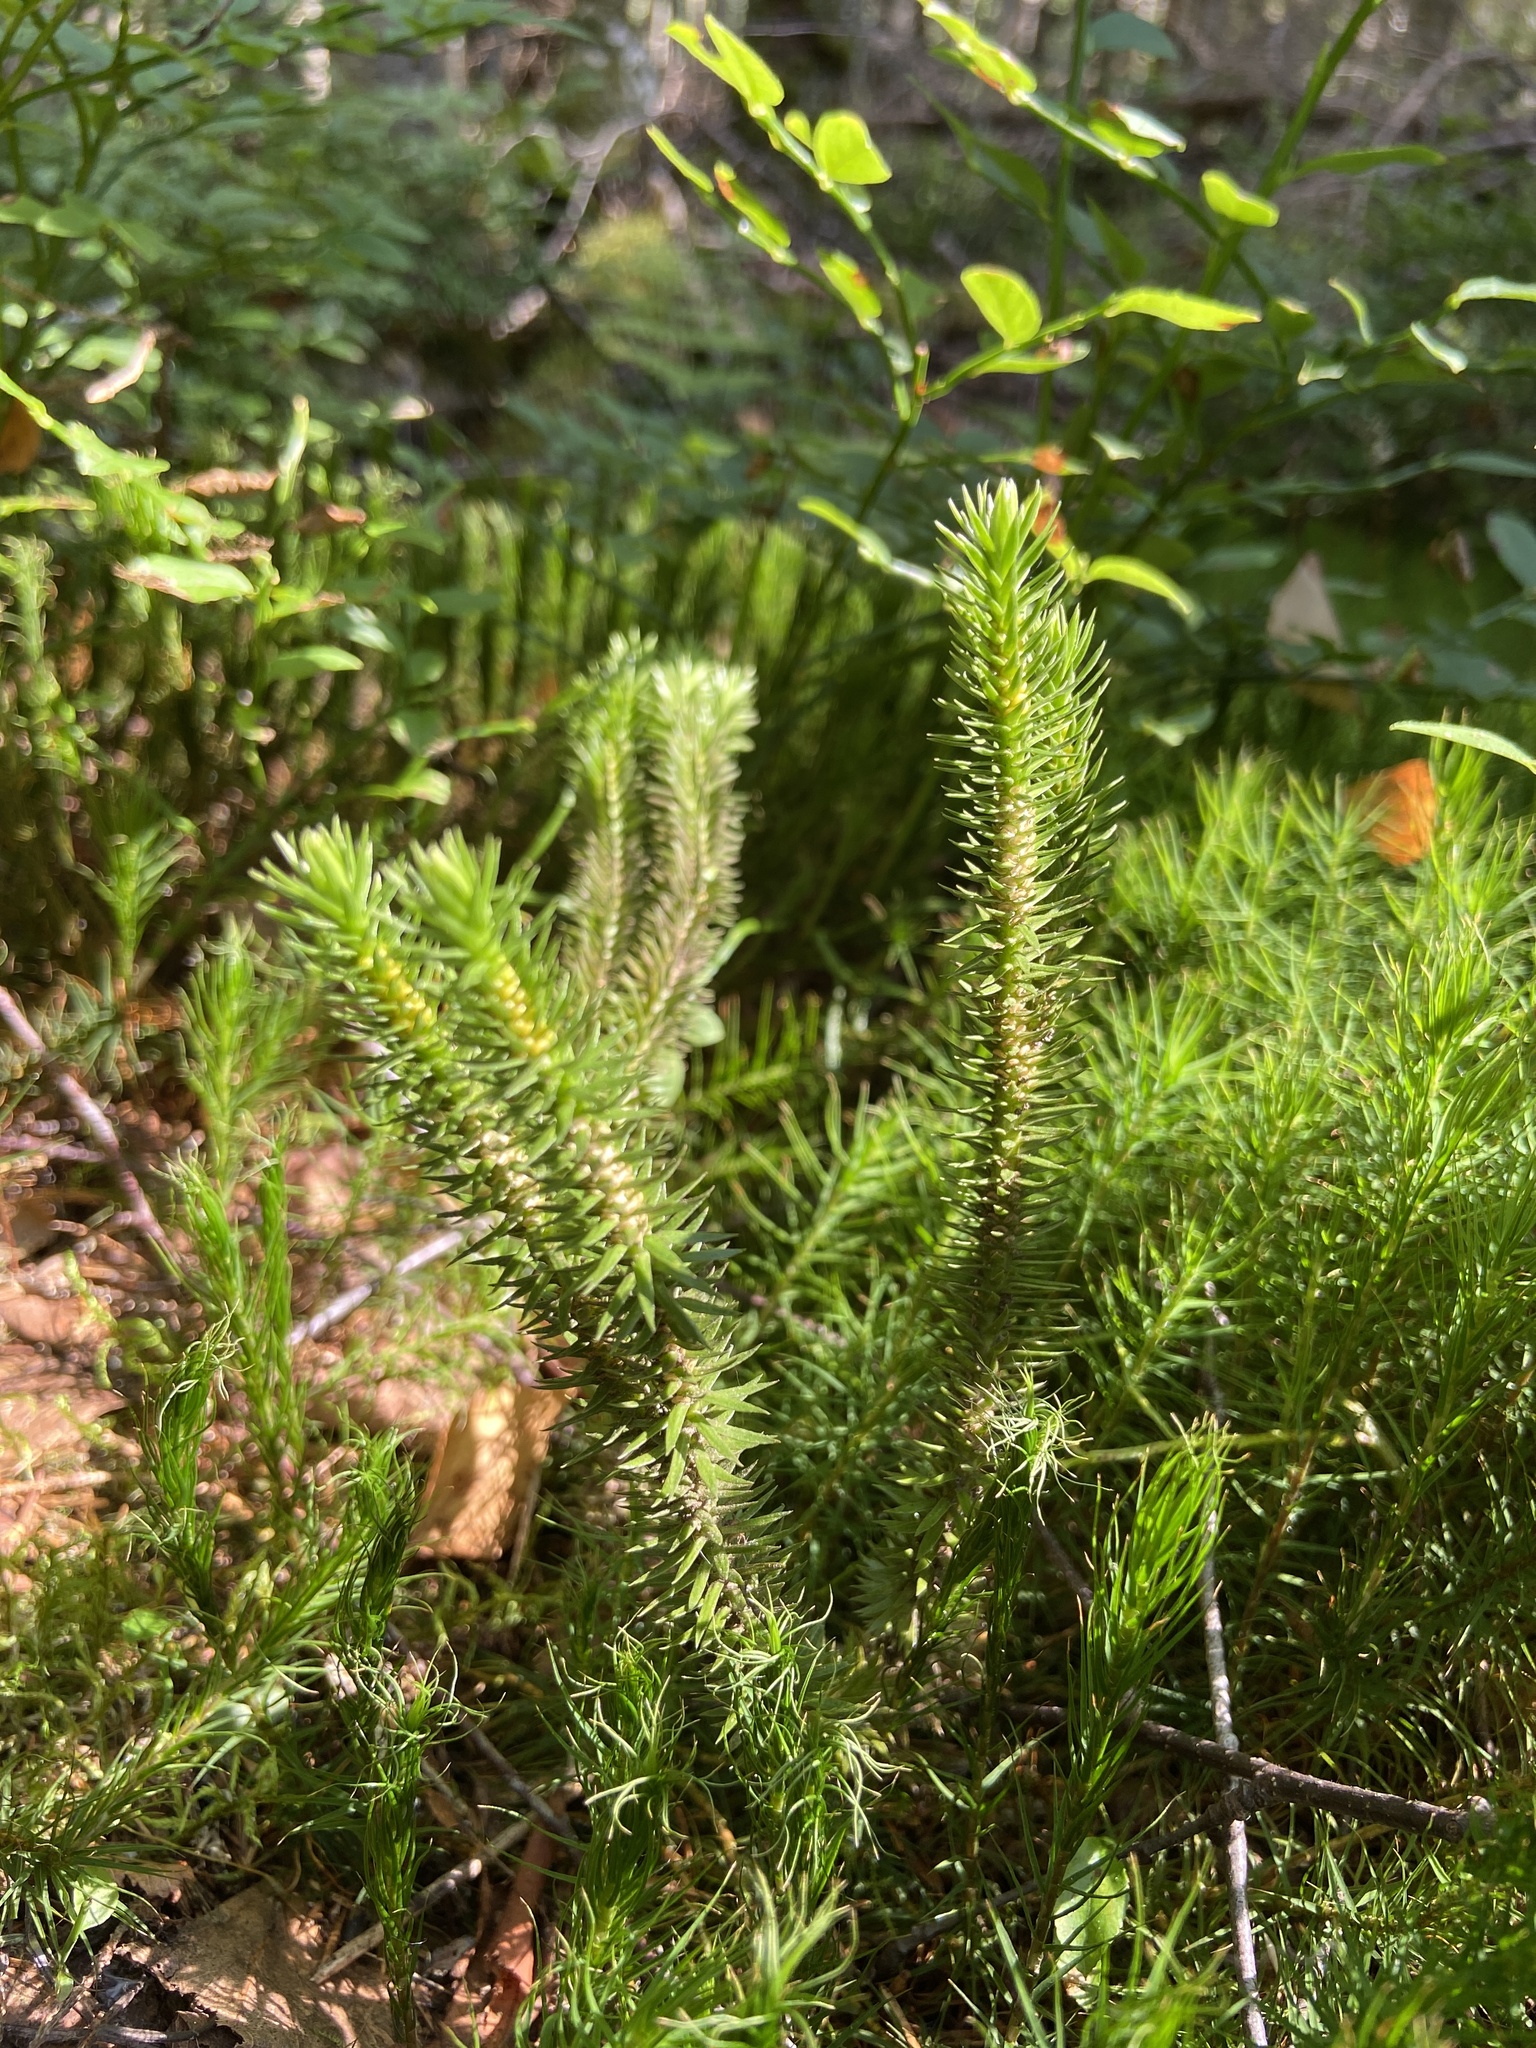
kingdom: Plantae
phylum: Tracheophyta
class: Lycopodiopsida
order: Lycopodiales
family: Lycopodiaceae
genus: Huperzia
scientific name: Huperzia selago
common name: Northern firmoss
